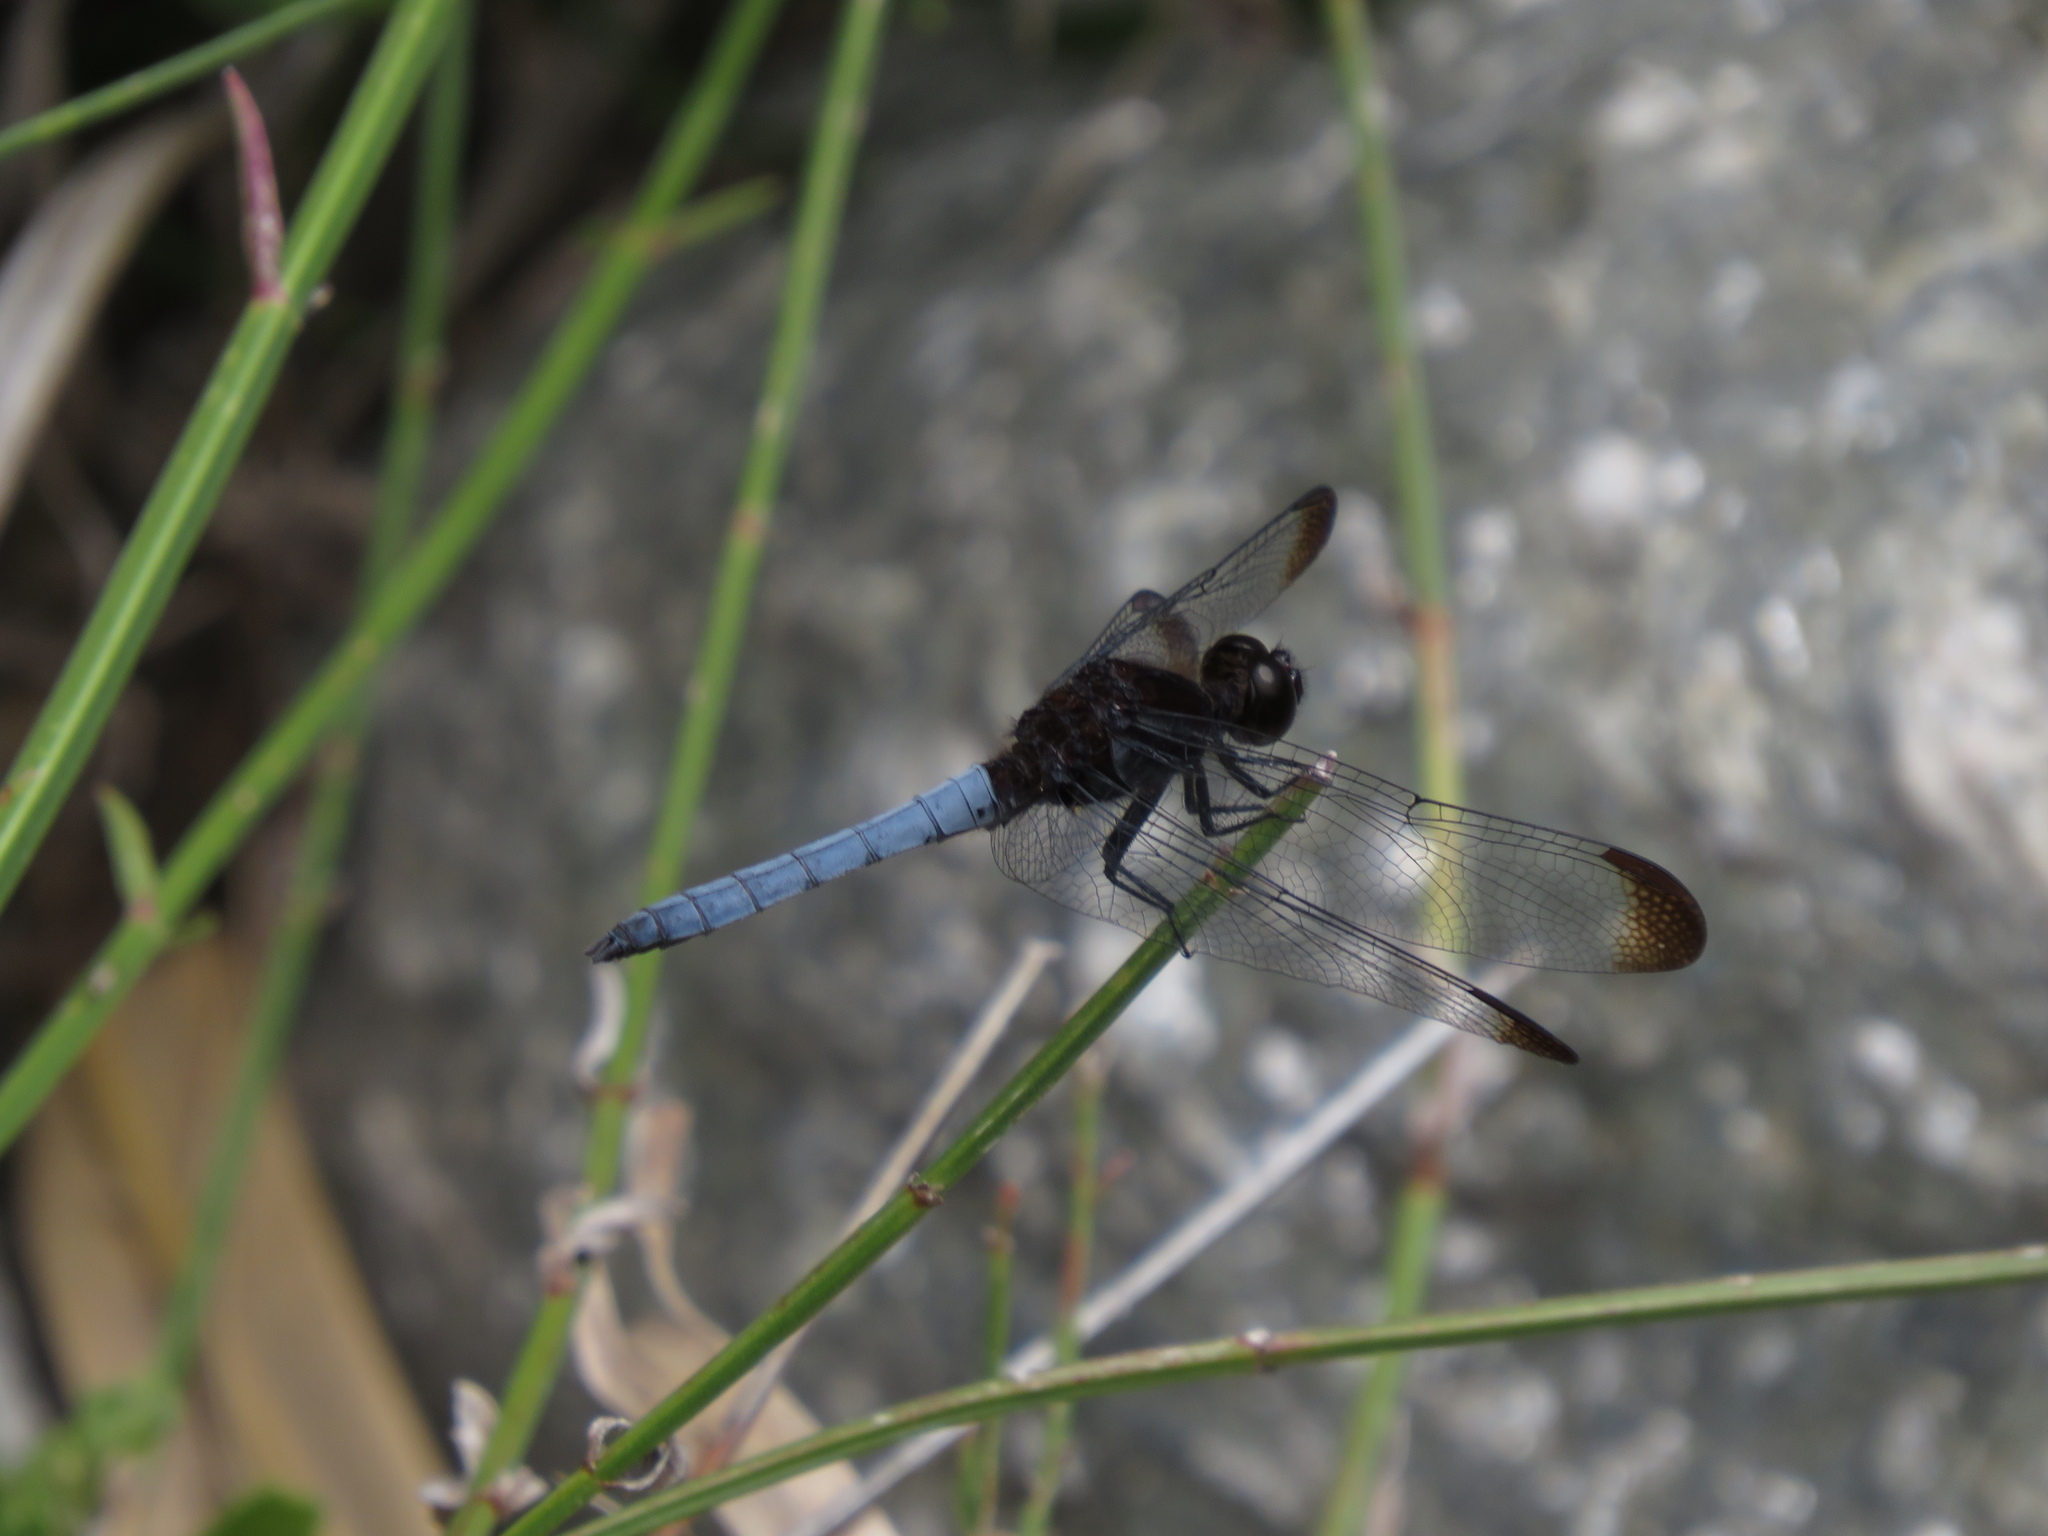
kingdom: Animalia
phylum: Arthropoda
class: Insecta
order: Odonata
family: Libellulidae
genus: Erythrodiplax
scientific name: Erythrodiplax atroterminata
